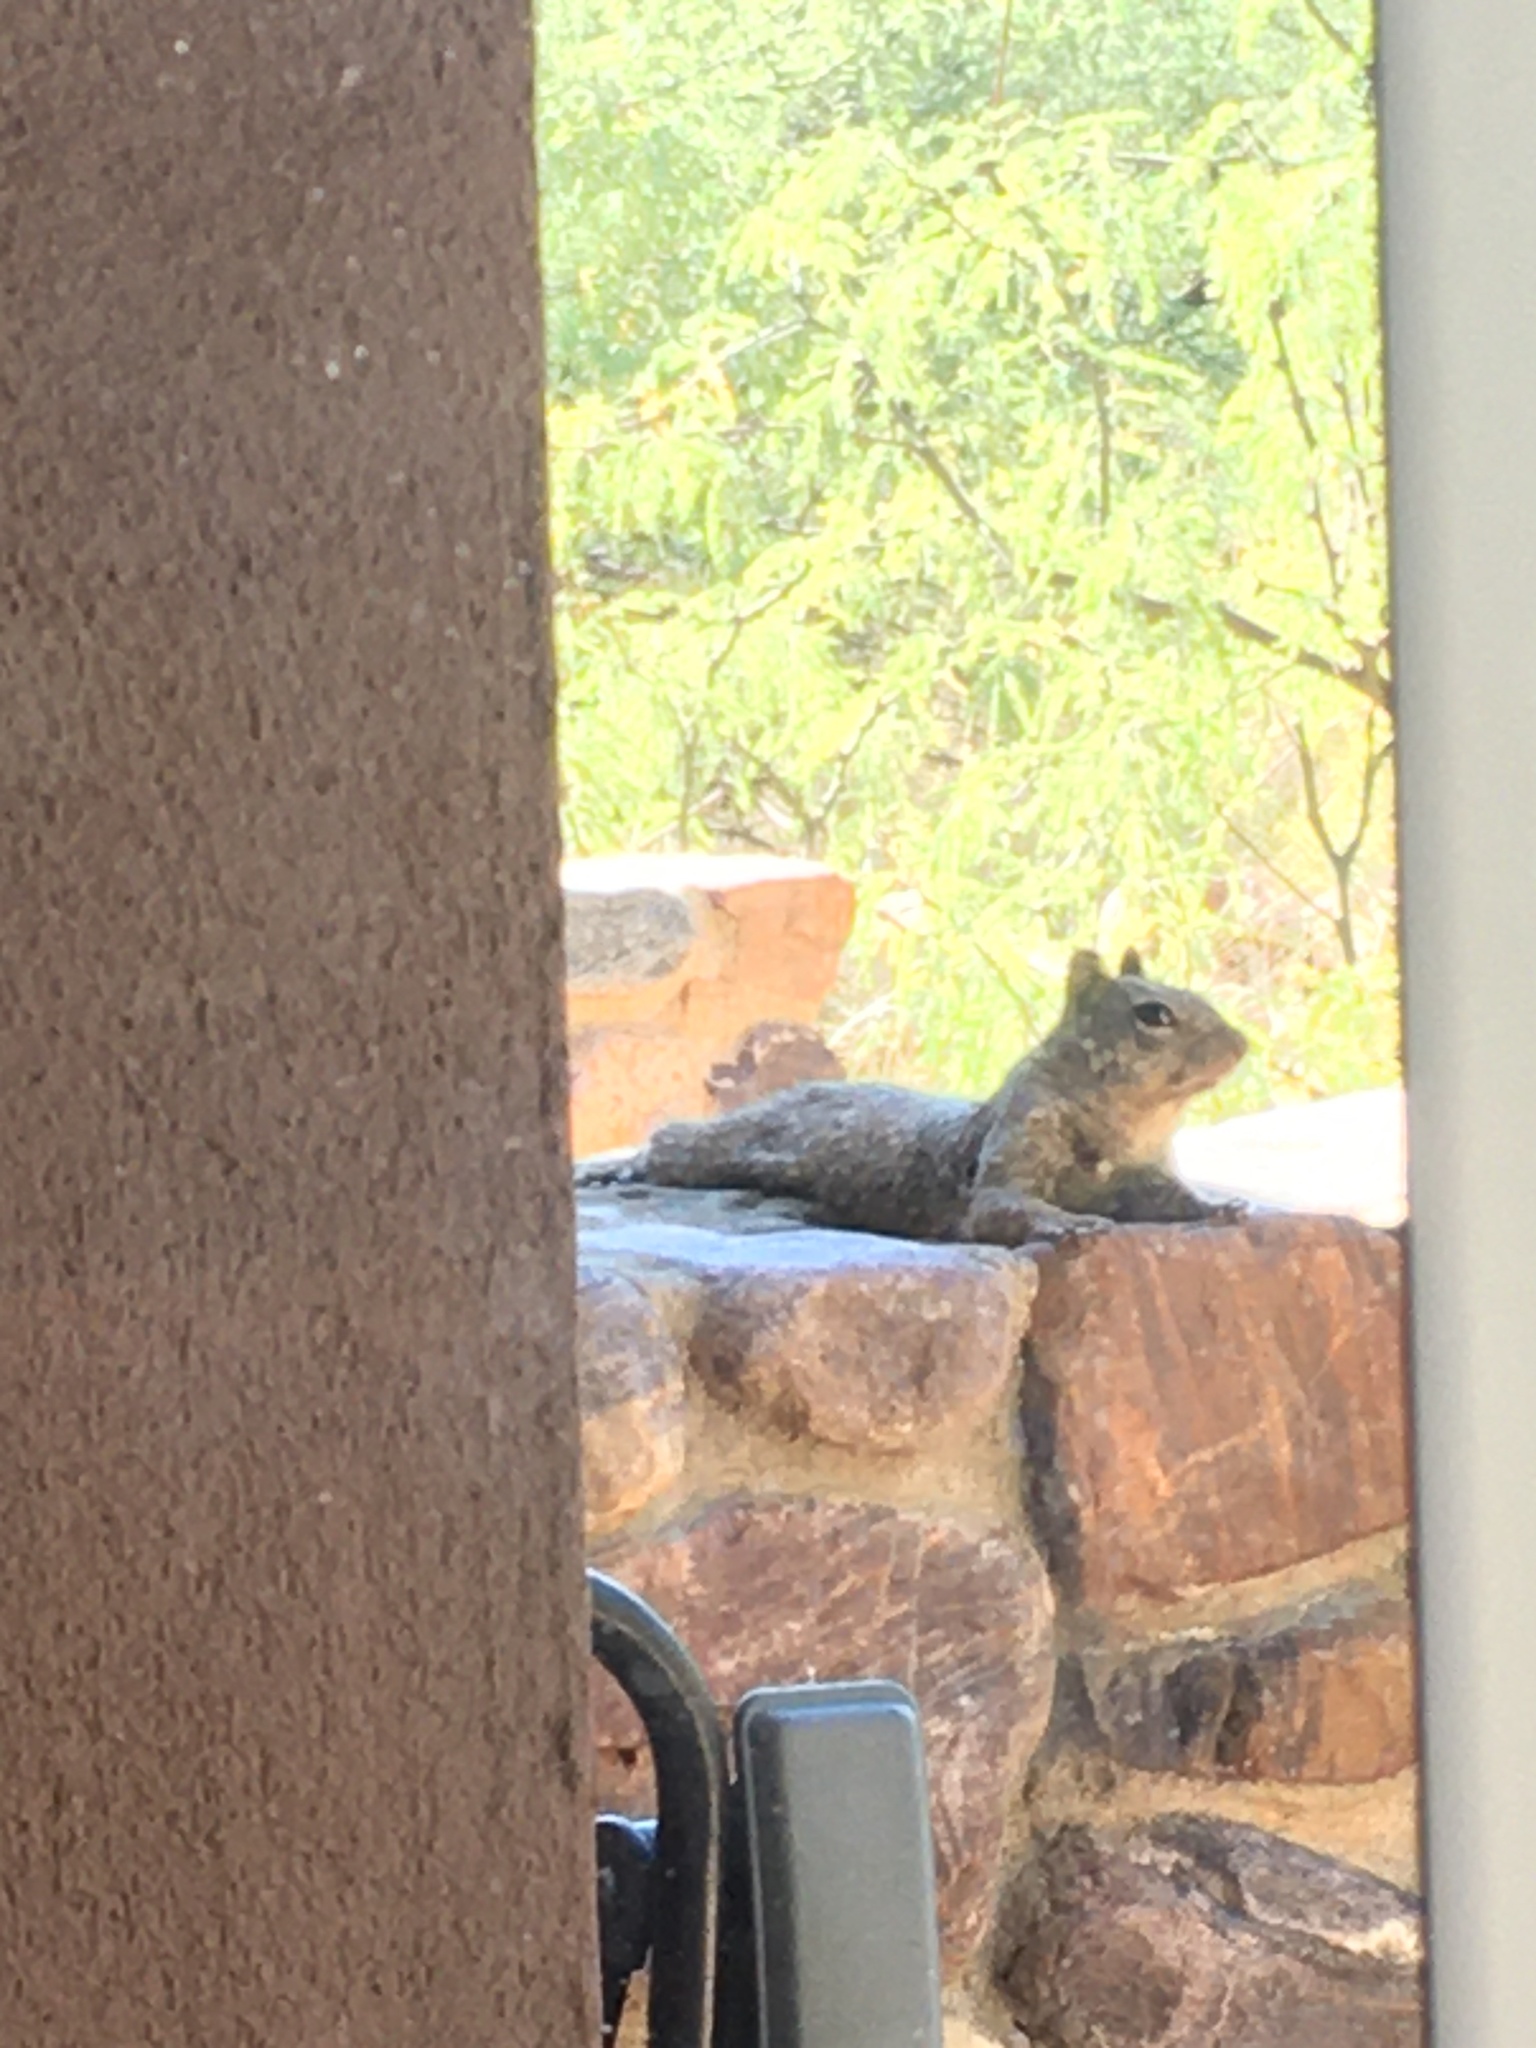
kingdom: Animalia
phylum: Chordata
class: Mammalia
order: Rodentia
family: Sciuridae
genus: Otospermophilus
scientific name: Otospermophilus variegatus
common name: Rock squirrel
